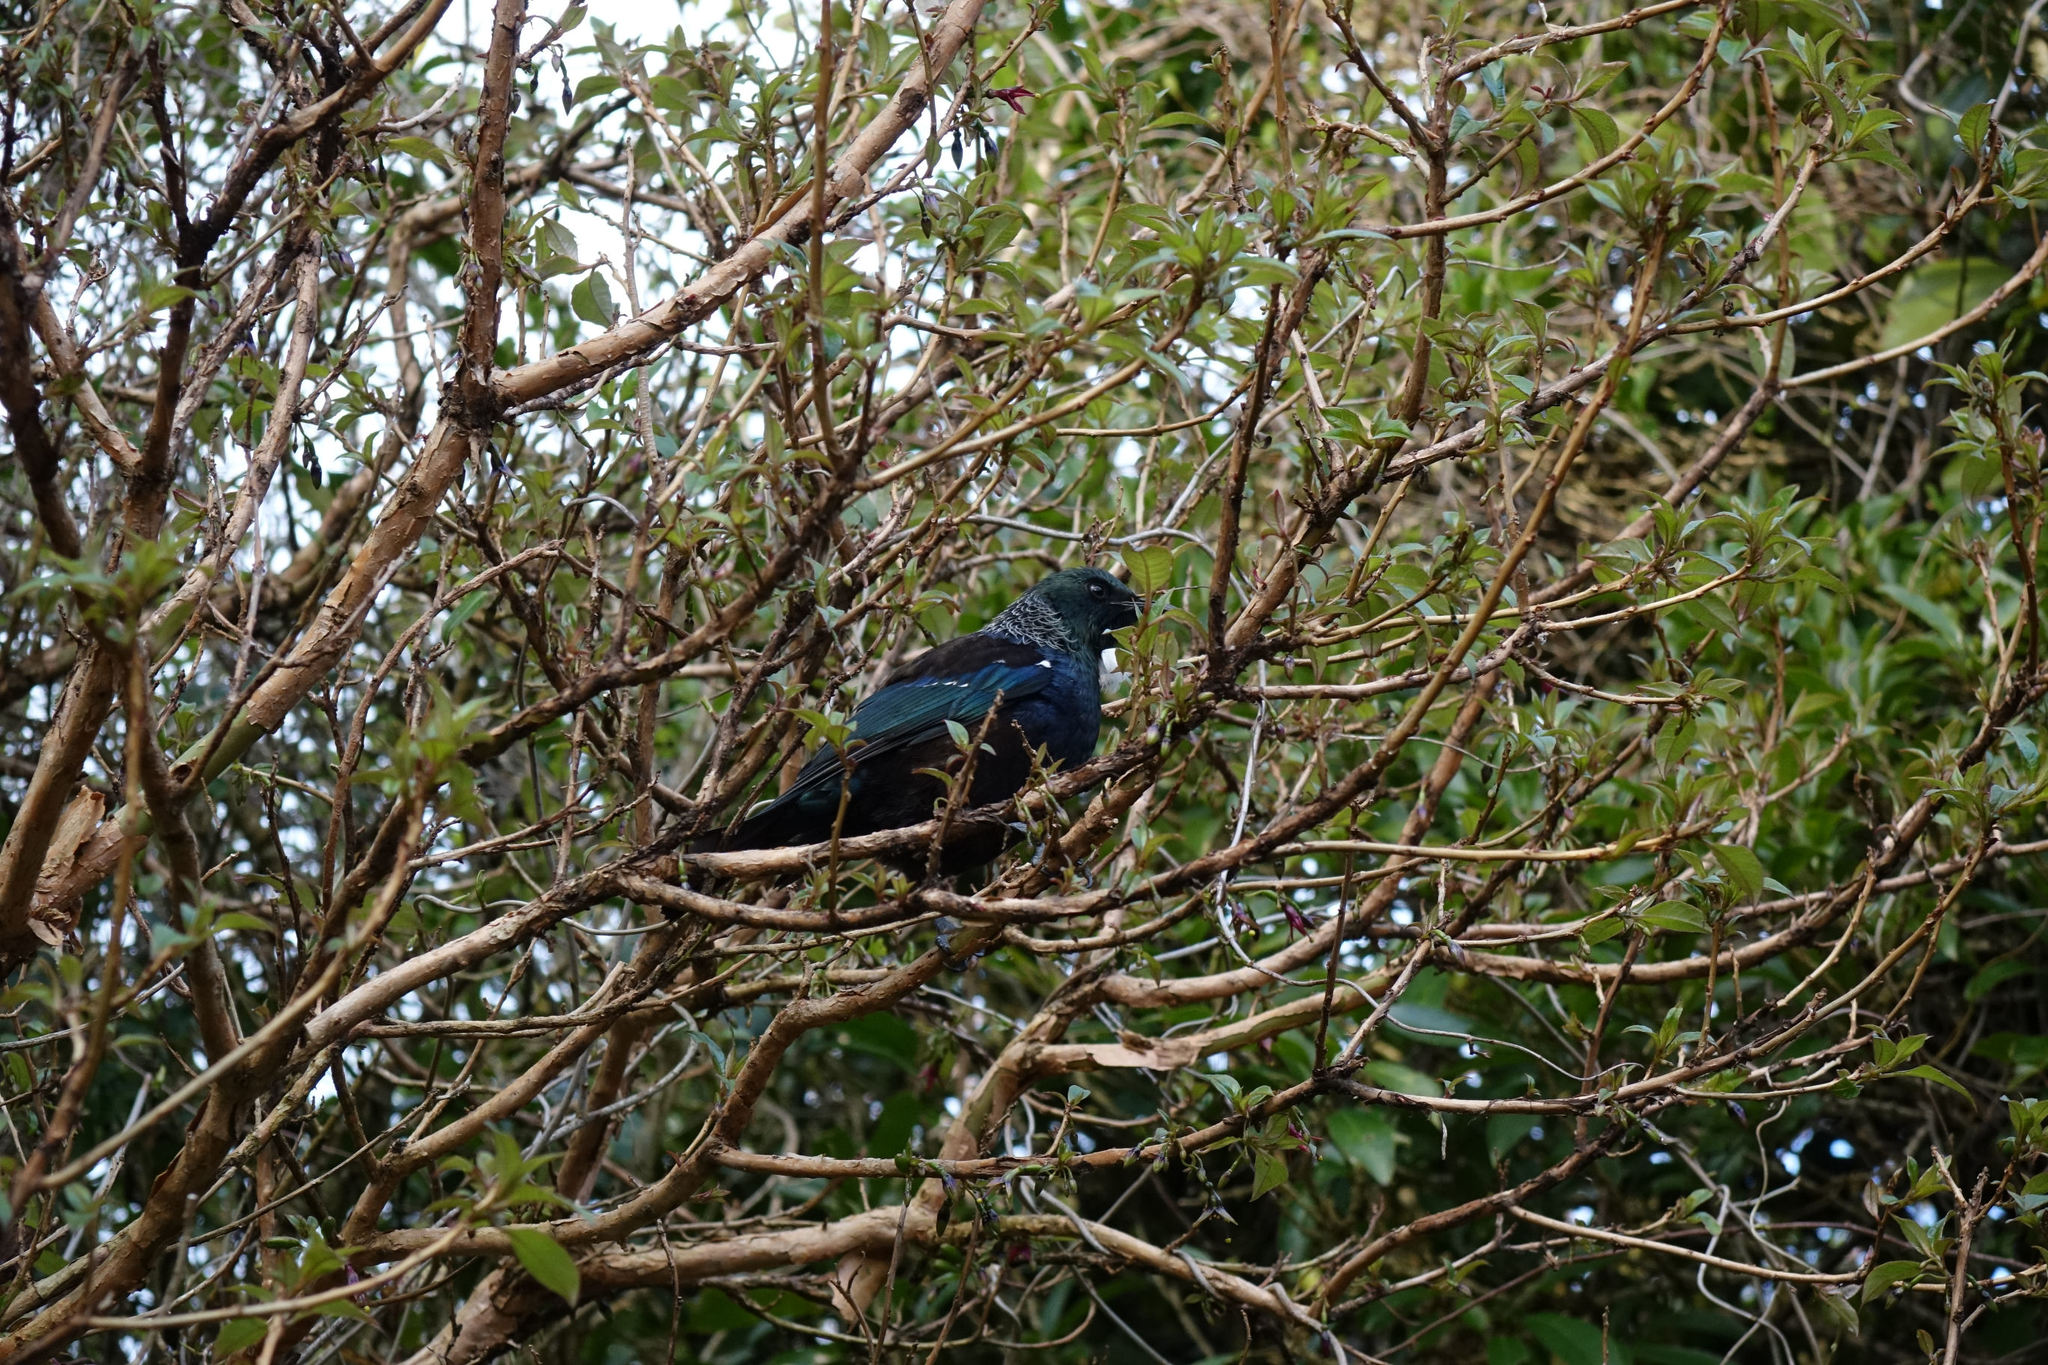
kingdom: Animalia
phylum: Chordata
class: Aves
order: Passeriformes
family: Meliphagidae
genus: Prosthemadera
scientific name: Prosthemadera novaeseelandiae
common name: Tui
